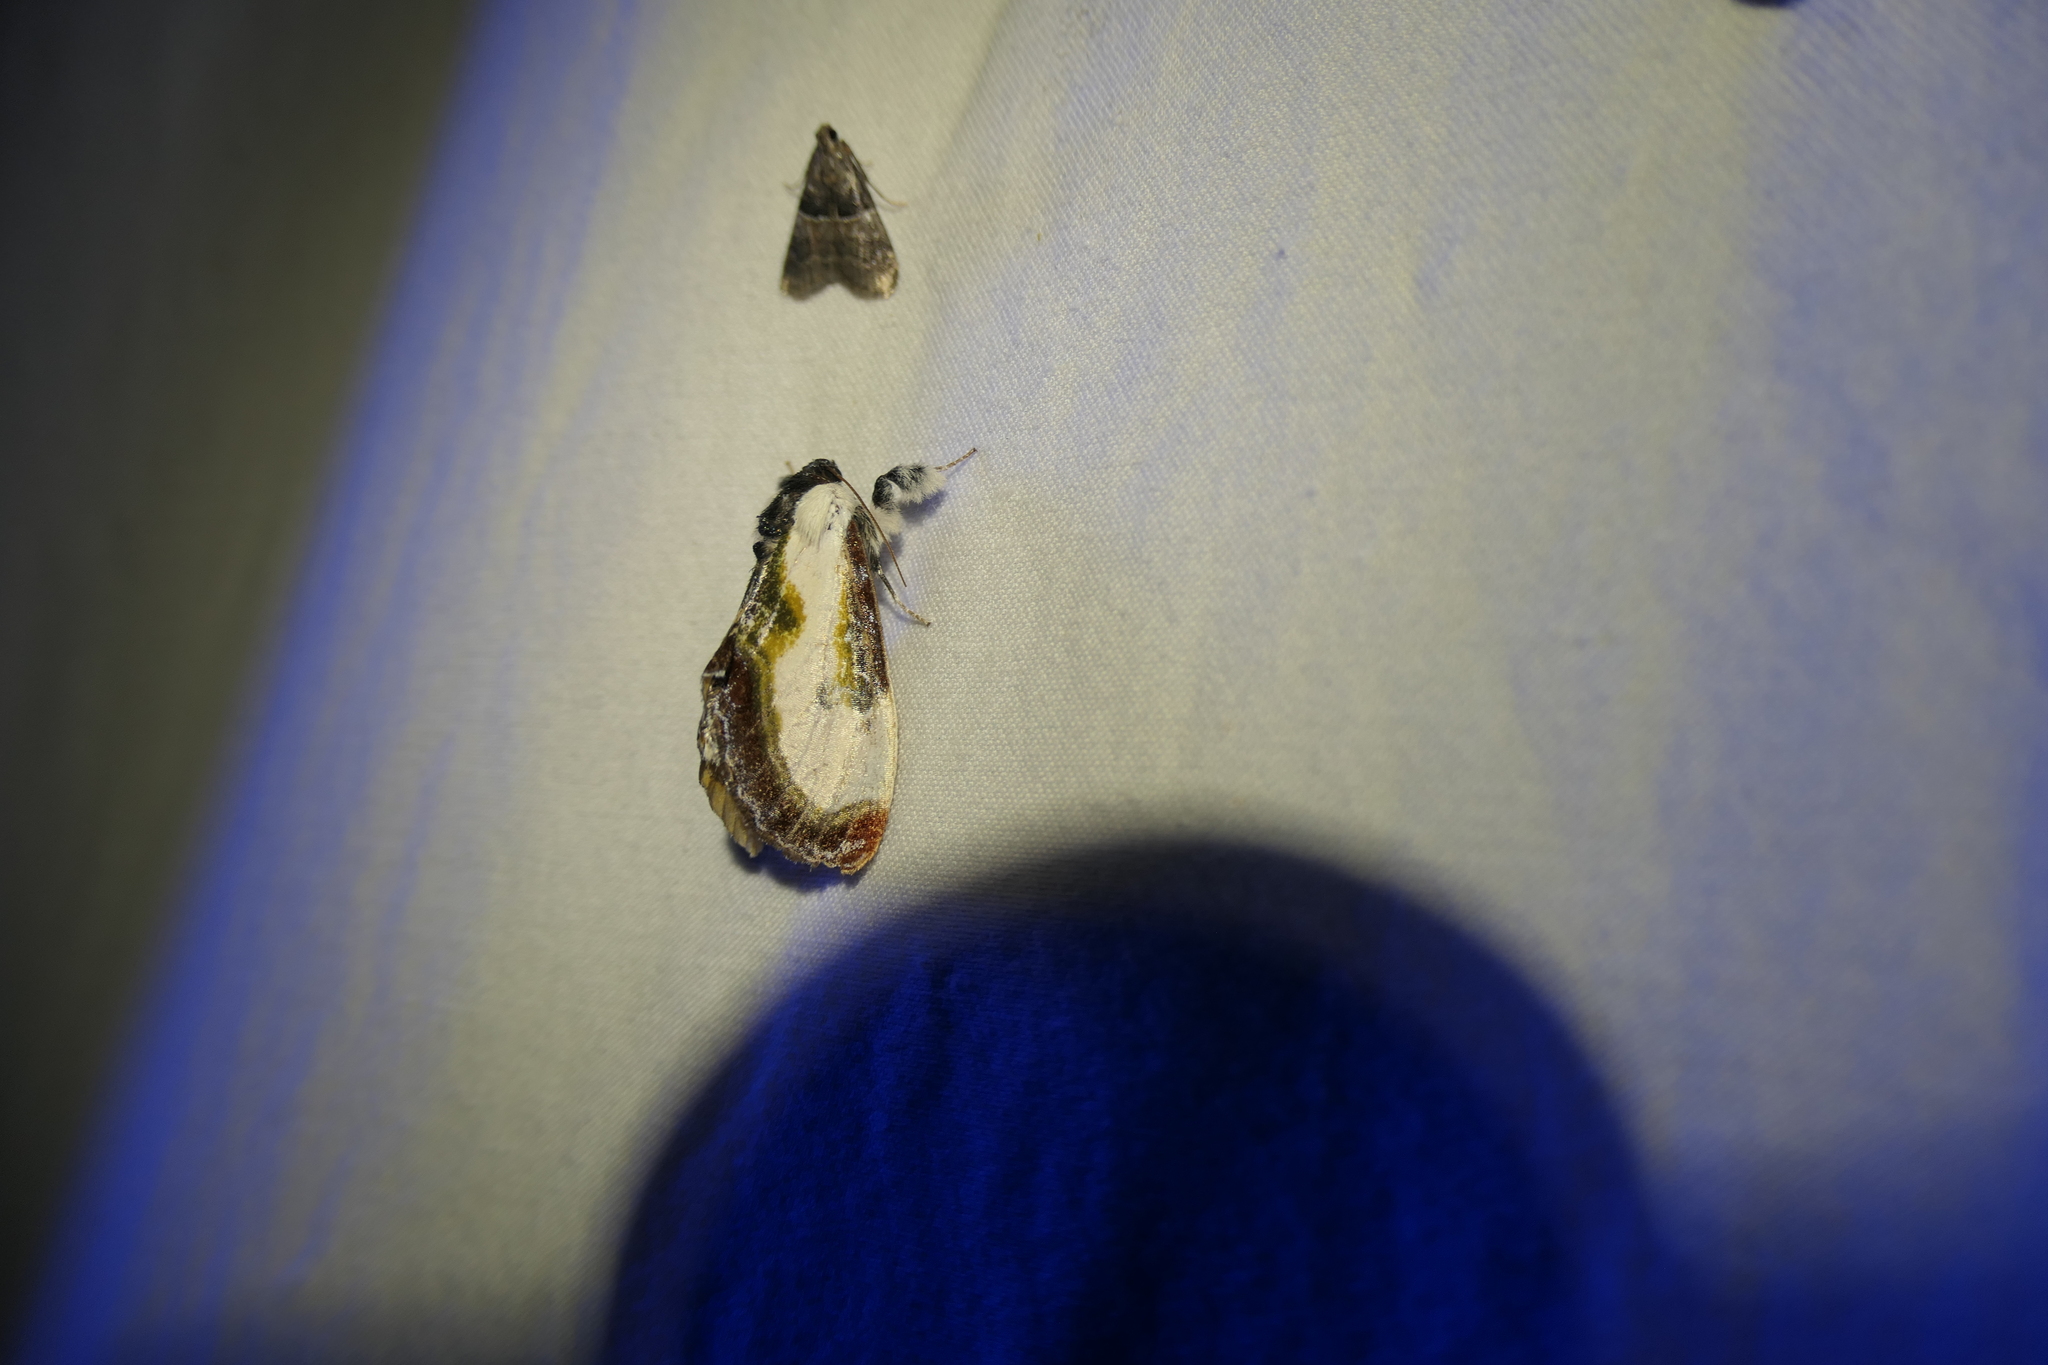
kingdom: Animalia
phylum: Arthropoda
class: Insecta
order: Lepidoptera
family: Noctuidae
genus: Eudryas
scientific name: Eudryas grata
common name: Beautiful wood-nymph
